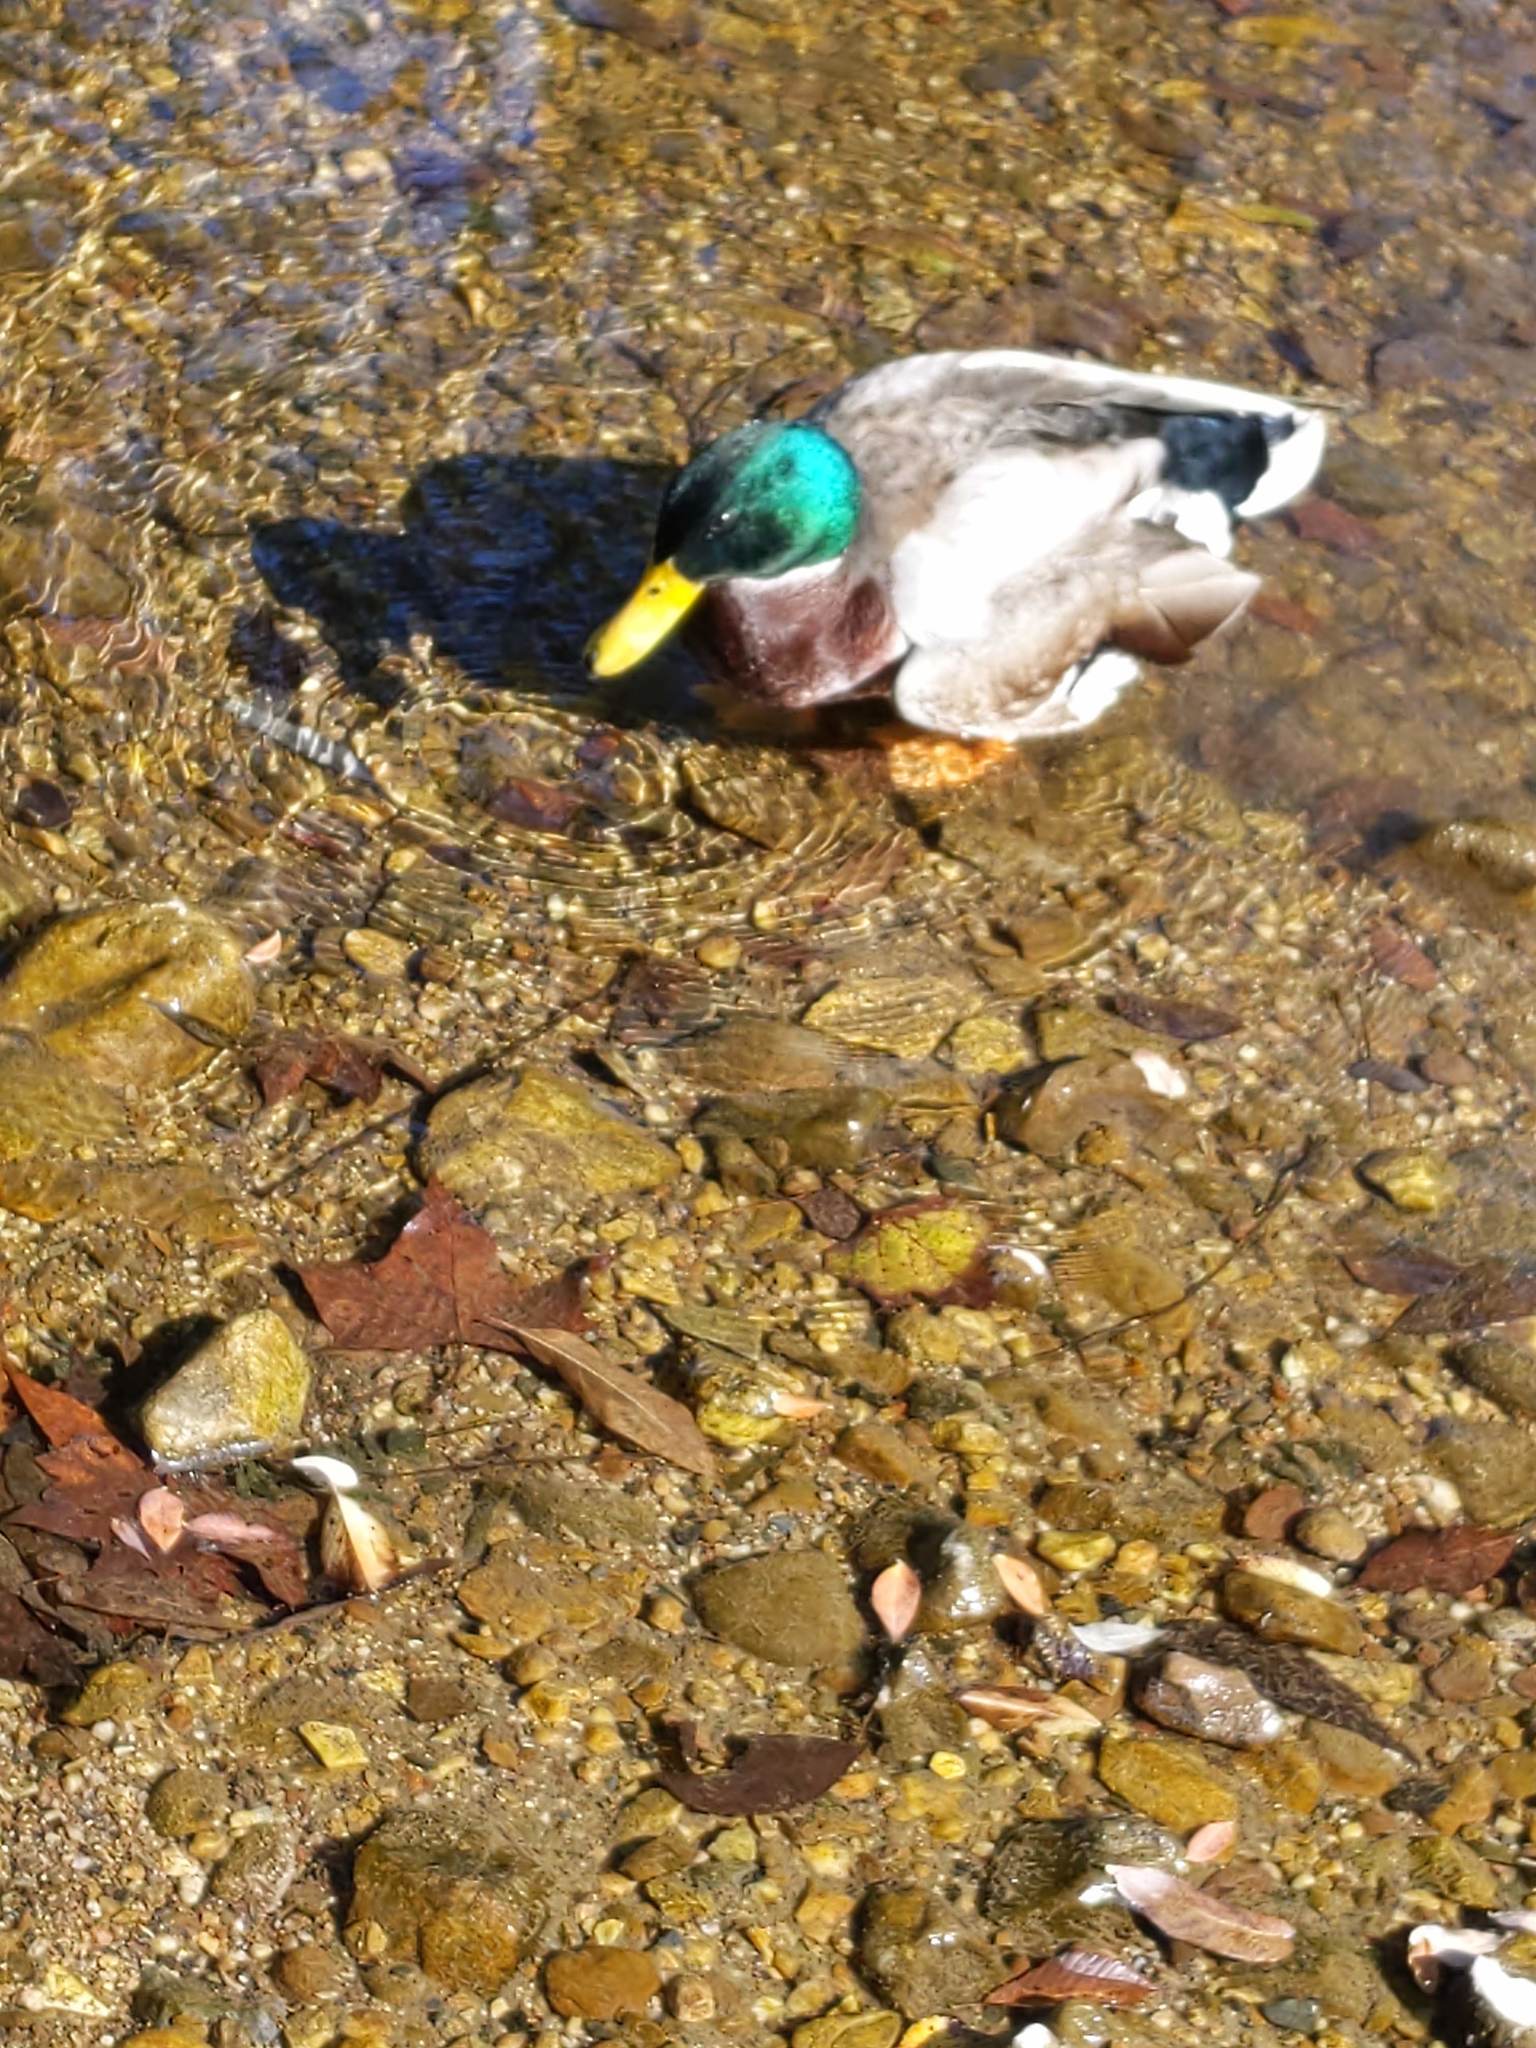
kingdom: Animalia
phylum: Chordata
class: Aves
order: Anseriformes
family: Anatidae
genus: Anas
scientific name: Anas platyrhynchos
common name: Mallard
